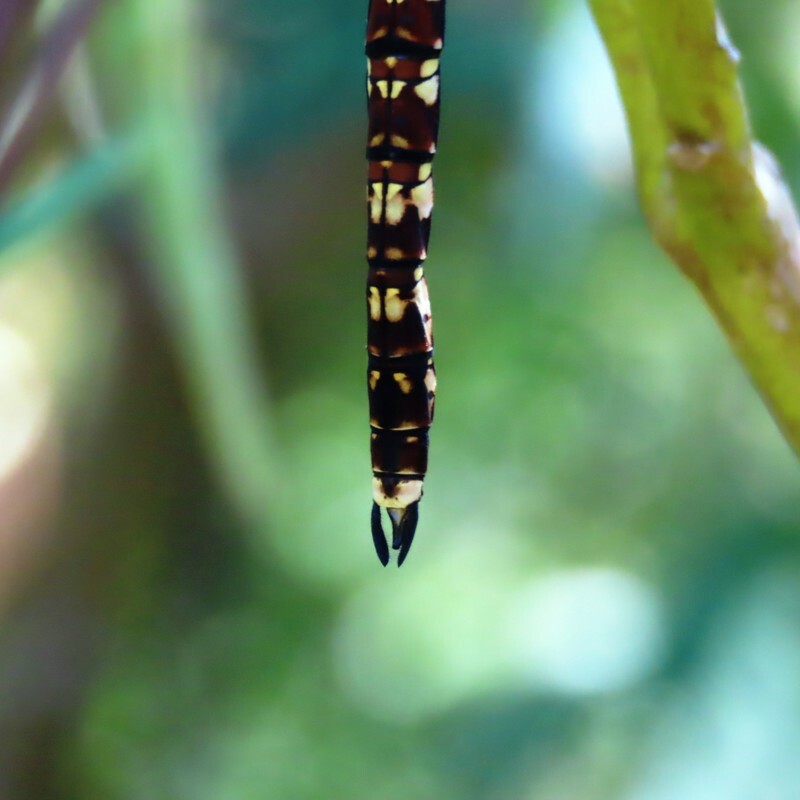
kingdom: Animalia
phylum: Arthropoda
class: Insecta
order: Odonata
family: Aeshnidae
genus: Aeshna
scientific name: Aeshna brevistyla
